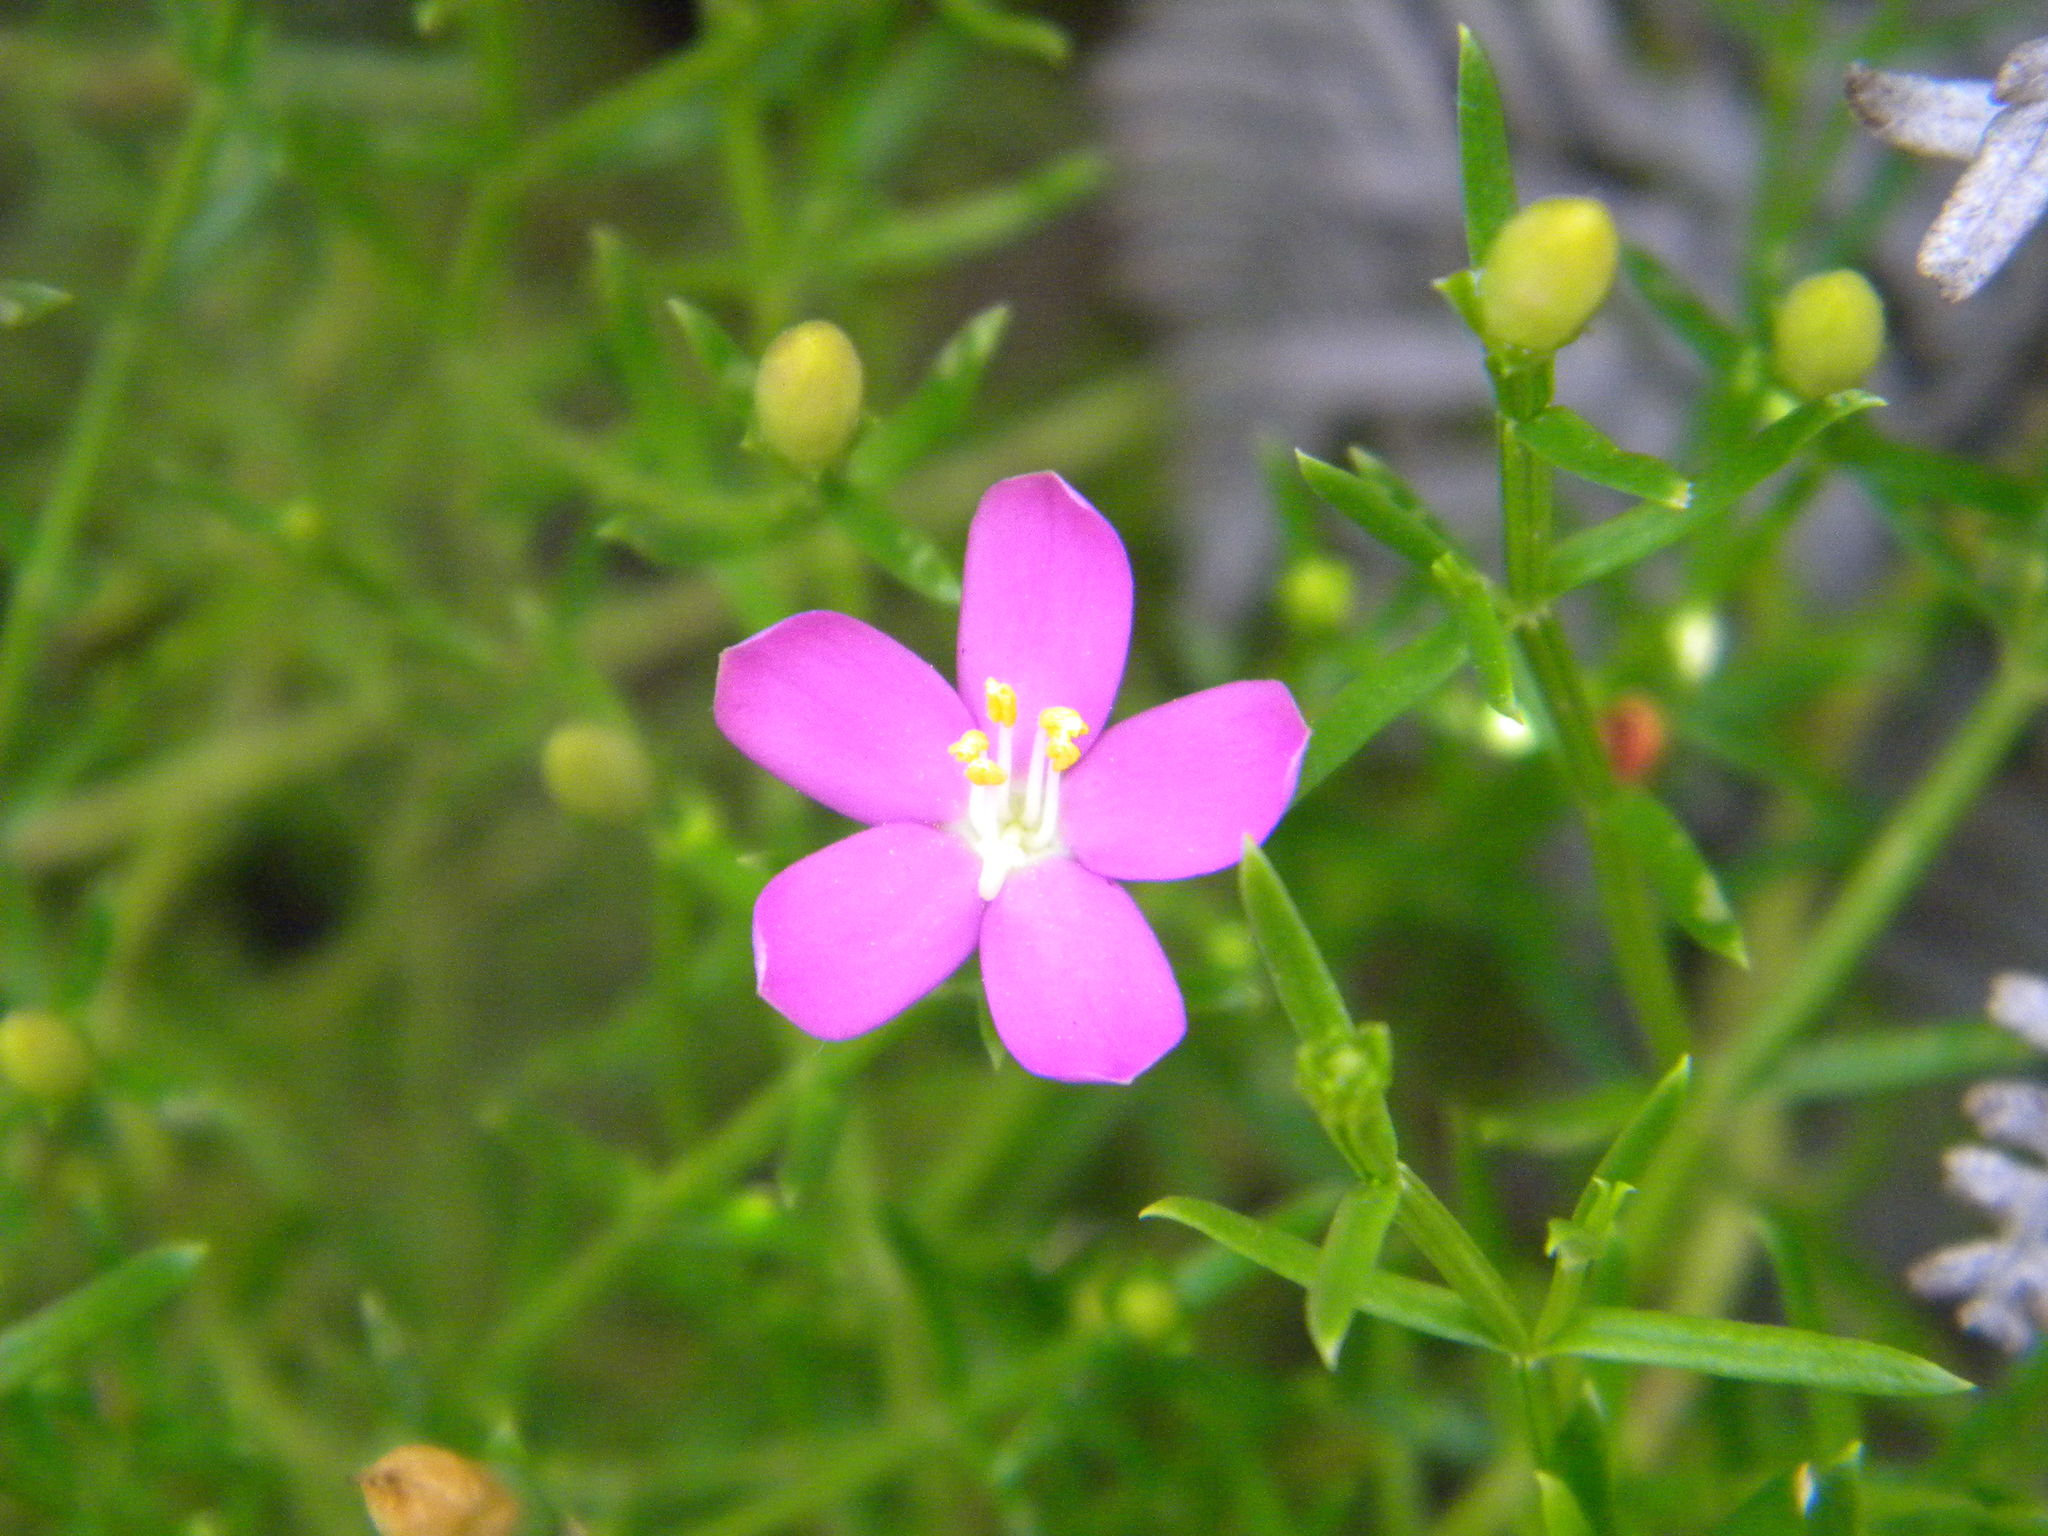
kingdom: Plantae
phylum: Tracheophyta
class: Magnoliopsida
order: Gentianales
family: Gentianaceae
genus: Chironia
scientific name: Chironia baccifera
